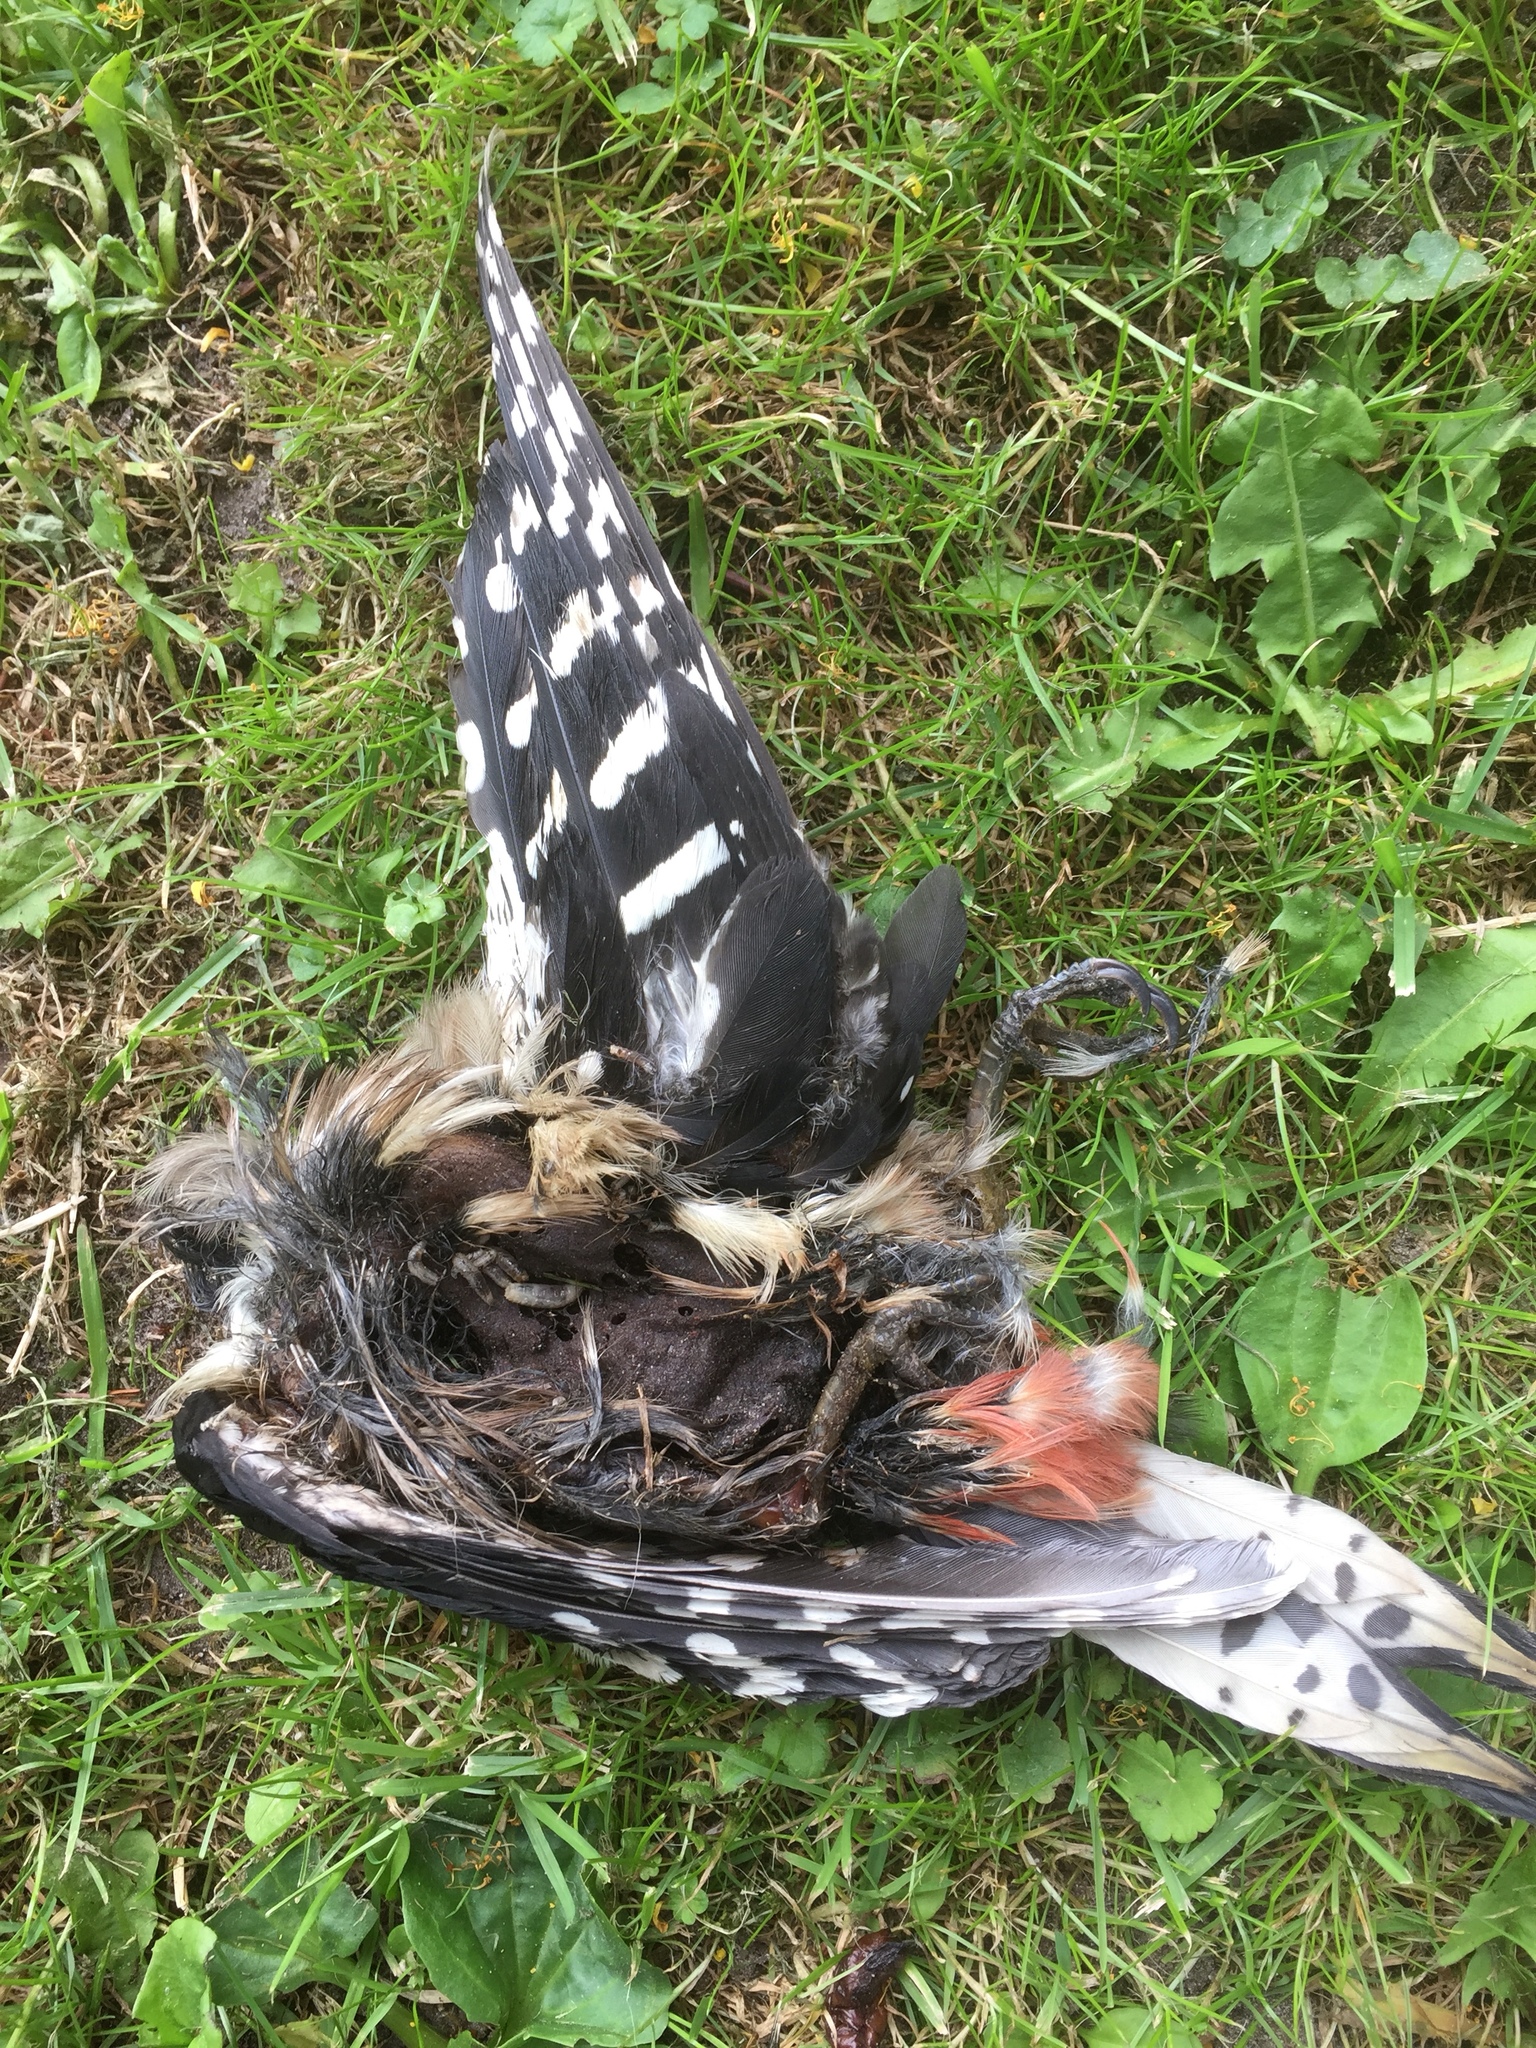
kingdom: Animalia
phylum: Chordata
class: Aves
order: Piciformes
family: Picidae
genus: Dendrocopos
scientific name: Dendrocopos major
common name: Great spotted woodpecker
